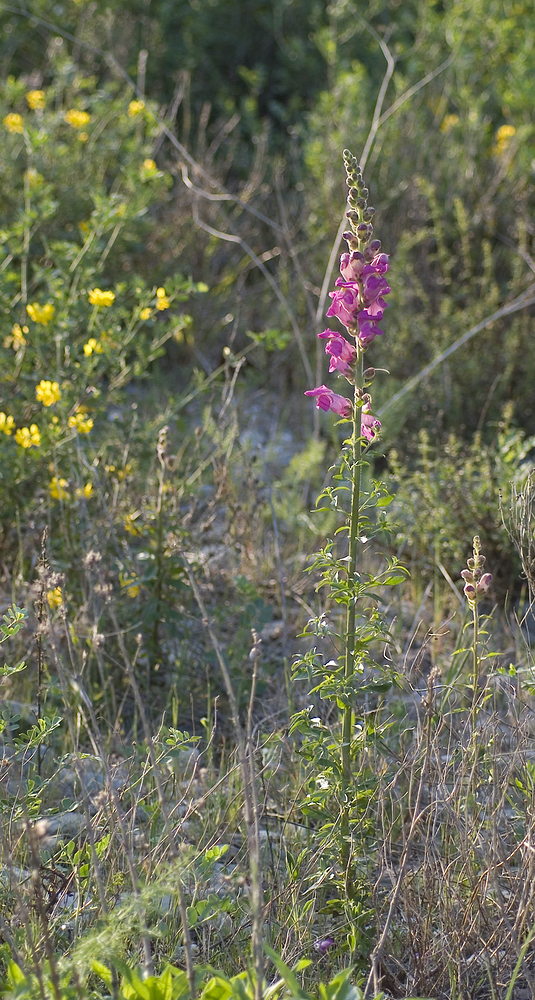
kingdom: Plantae
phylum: Tracheophyta
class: Magnoliopsida
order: Lamiales
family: Plantaginaceae
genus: Antirrhinum
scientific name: Antirrhinum majus
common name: Snapdragon
